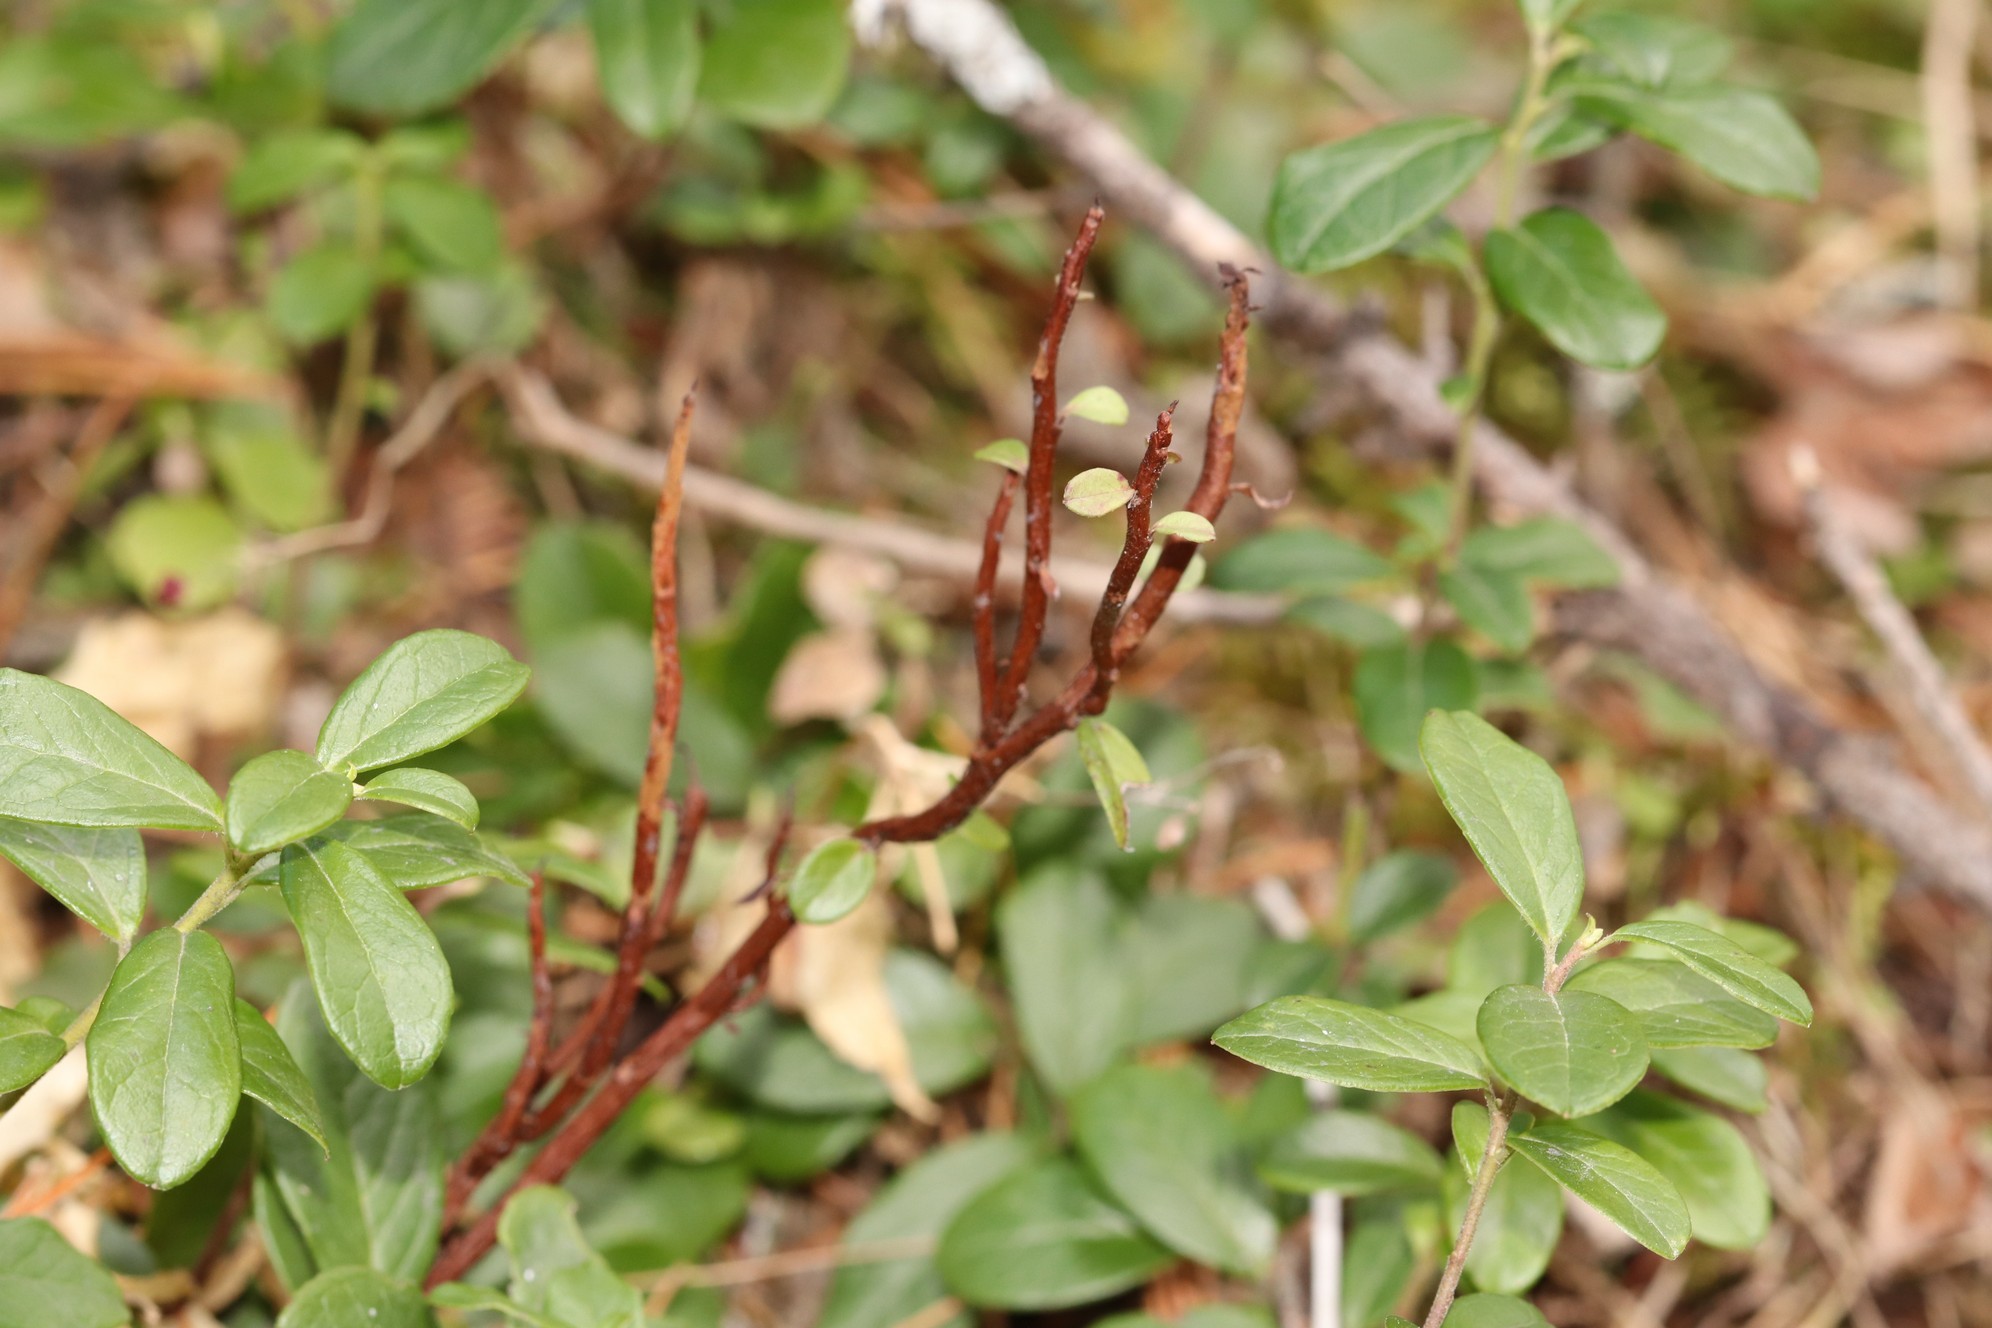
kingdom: Fungi
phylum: Basidiomycota
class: Pucciniomycetes
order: Pucciniales
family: Pucciniastraceae
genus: Calyptospora
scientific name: Calyptospora columnaris
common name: Huckleberry broom rust fungus
